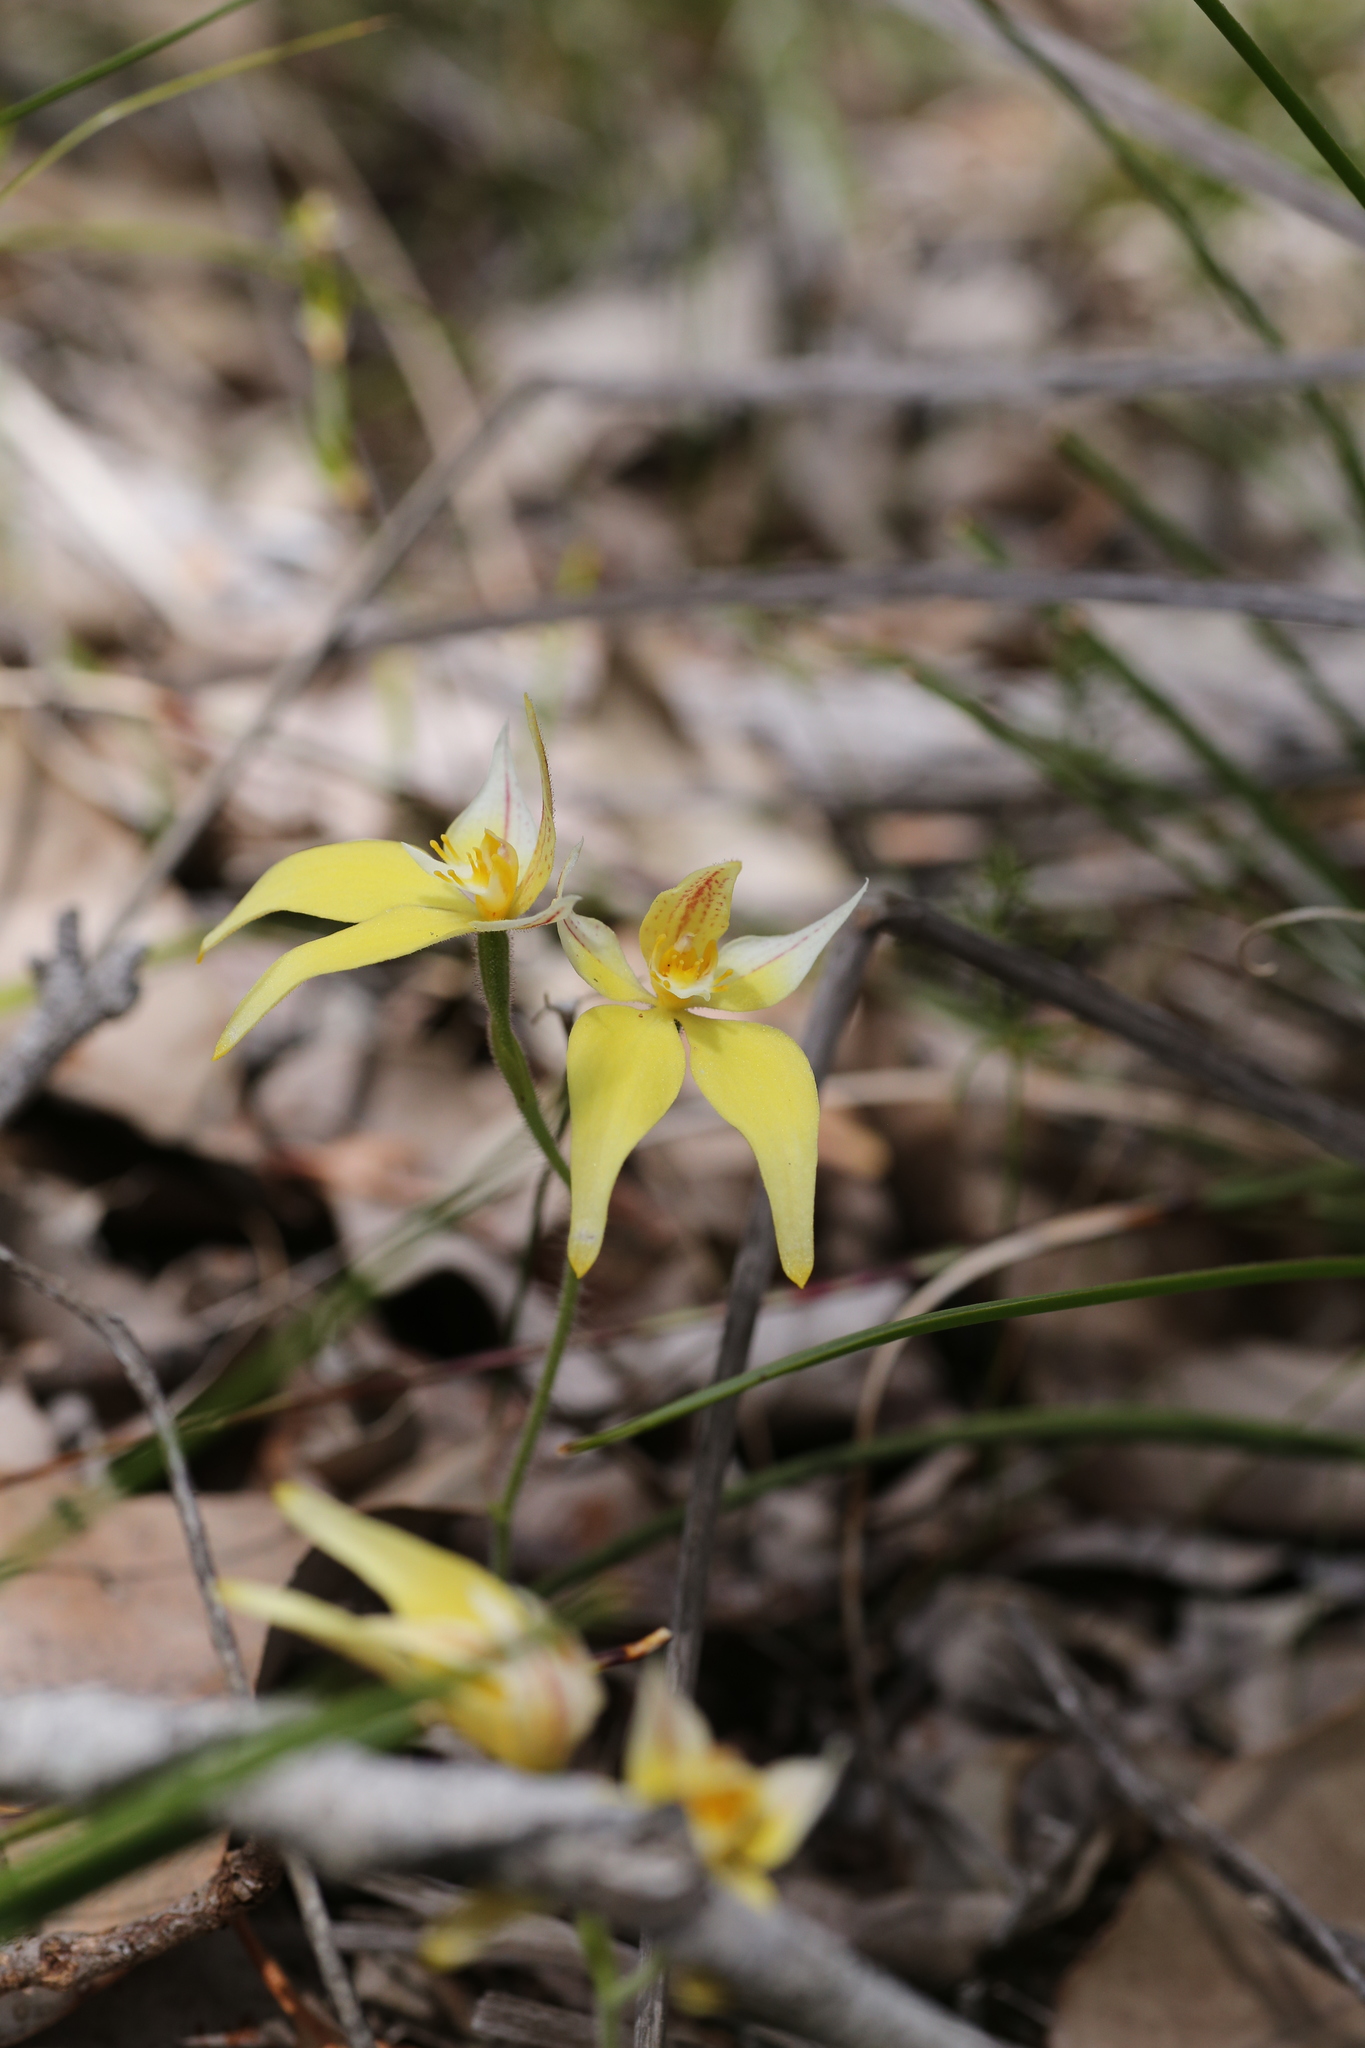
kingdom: Plantae
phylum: Tracheophyta
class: Liliopsida
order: Asparagales
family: Orchidaceae
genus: Caladenia
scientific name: Caladenia flava
